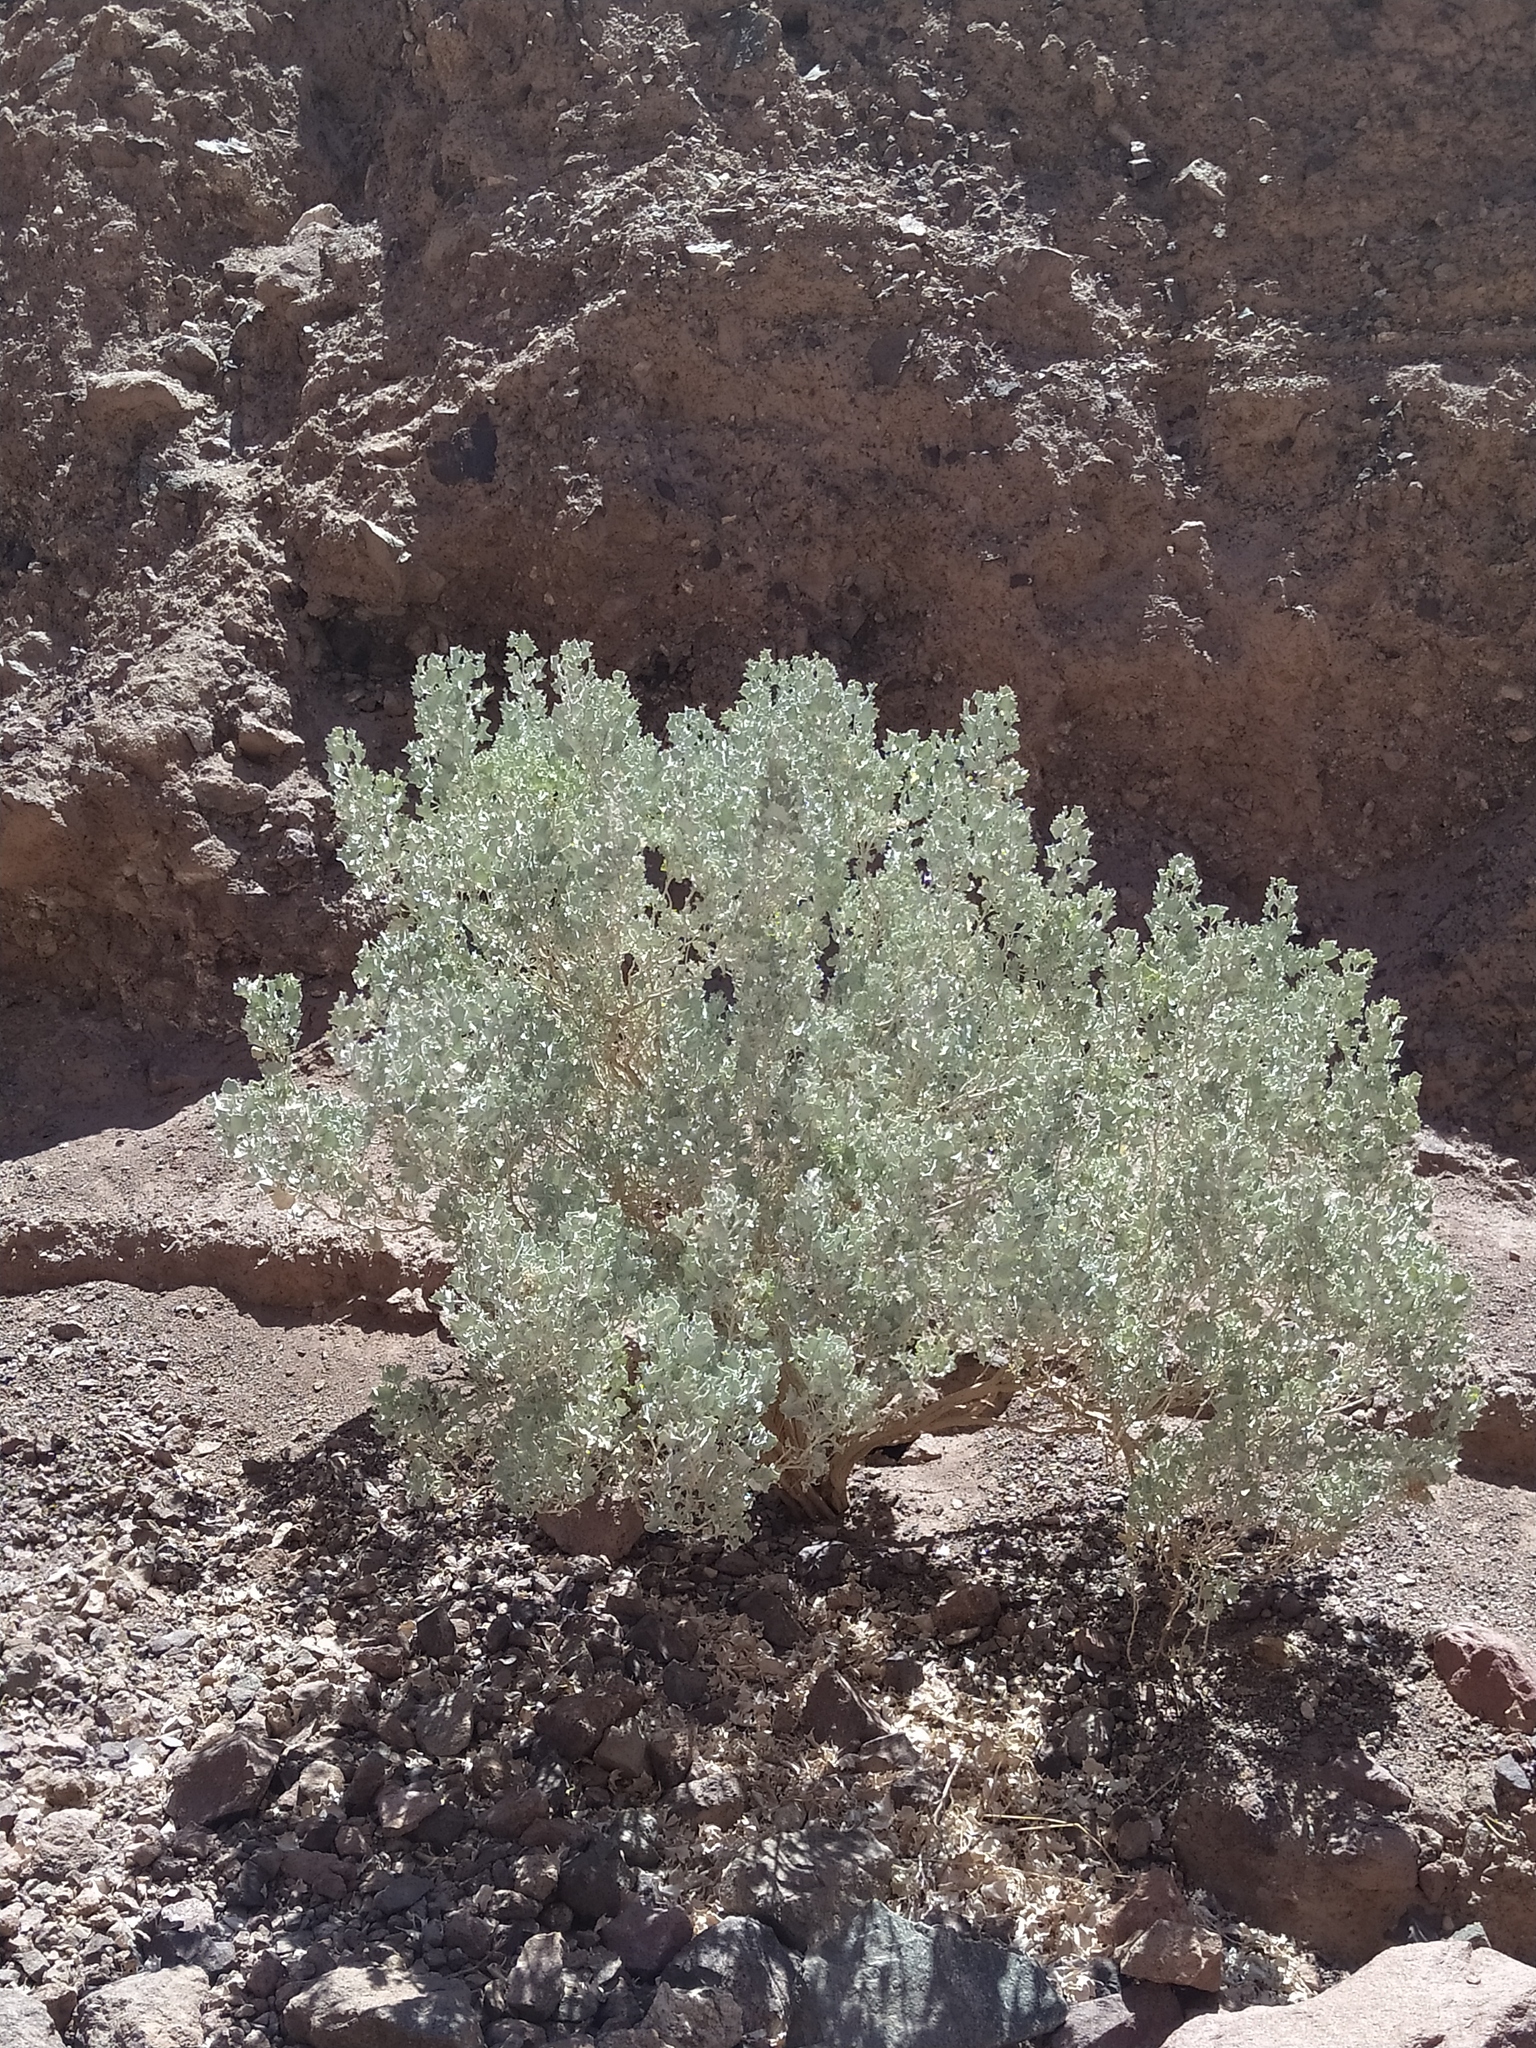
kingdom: Plantae
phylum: Tracheophyta
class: Magnoliopsida
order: Caryophyllales
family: Amaranthaceae
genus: Atriplex
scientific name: Atriplex hymenelytra
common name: Desert-holly
